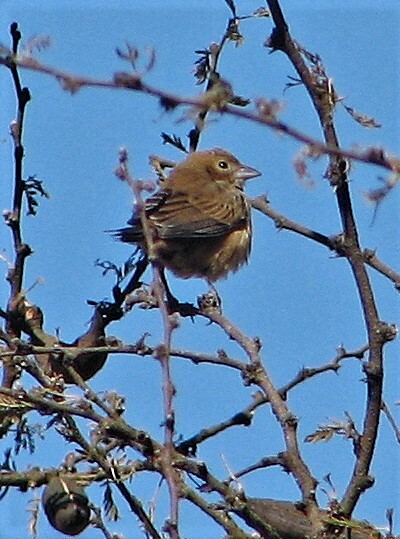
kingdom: Animalia
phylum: Chordata
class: Aves
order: Passeriformes
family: Thraupidae
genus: Coryphospingus
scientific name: Coryphospingus cucullatus
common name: Red pileated finch
